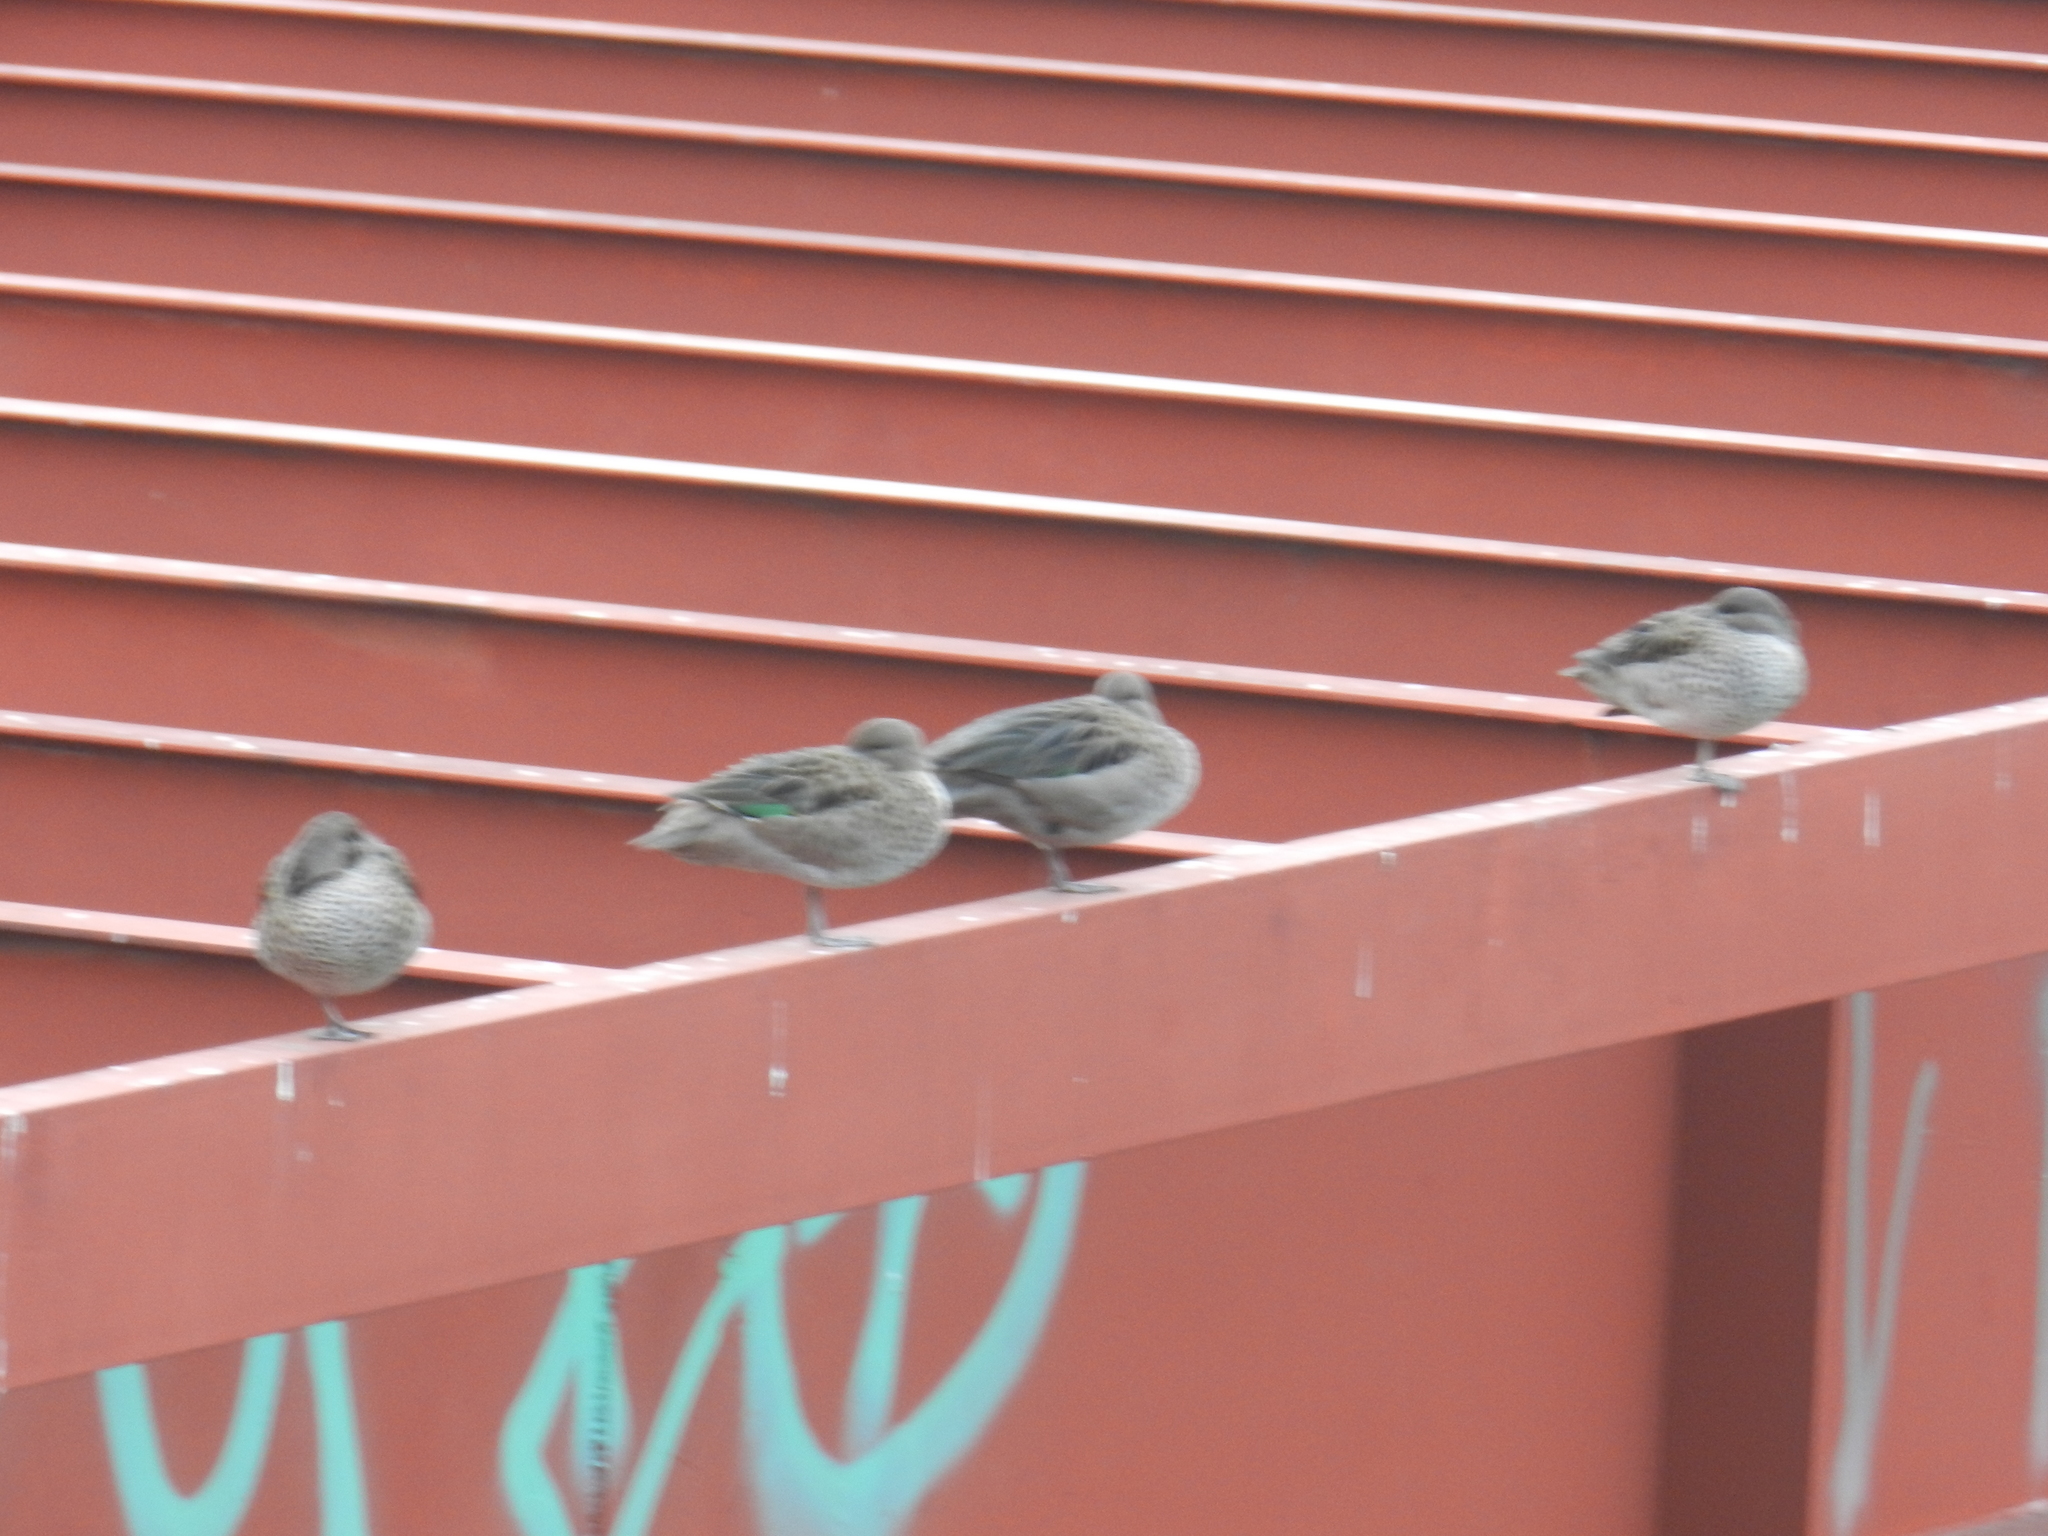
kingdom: Animalia
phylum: Chordata
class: Aves
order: Anseriformes
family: Anatidae
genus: Anas
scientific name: Anas flavirostris
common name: Yellow-billed teal
